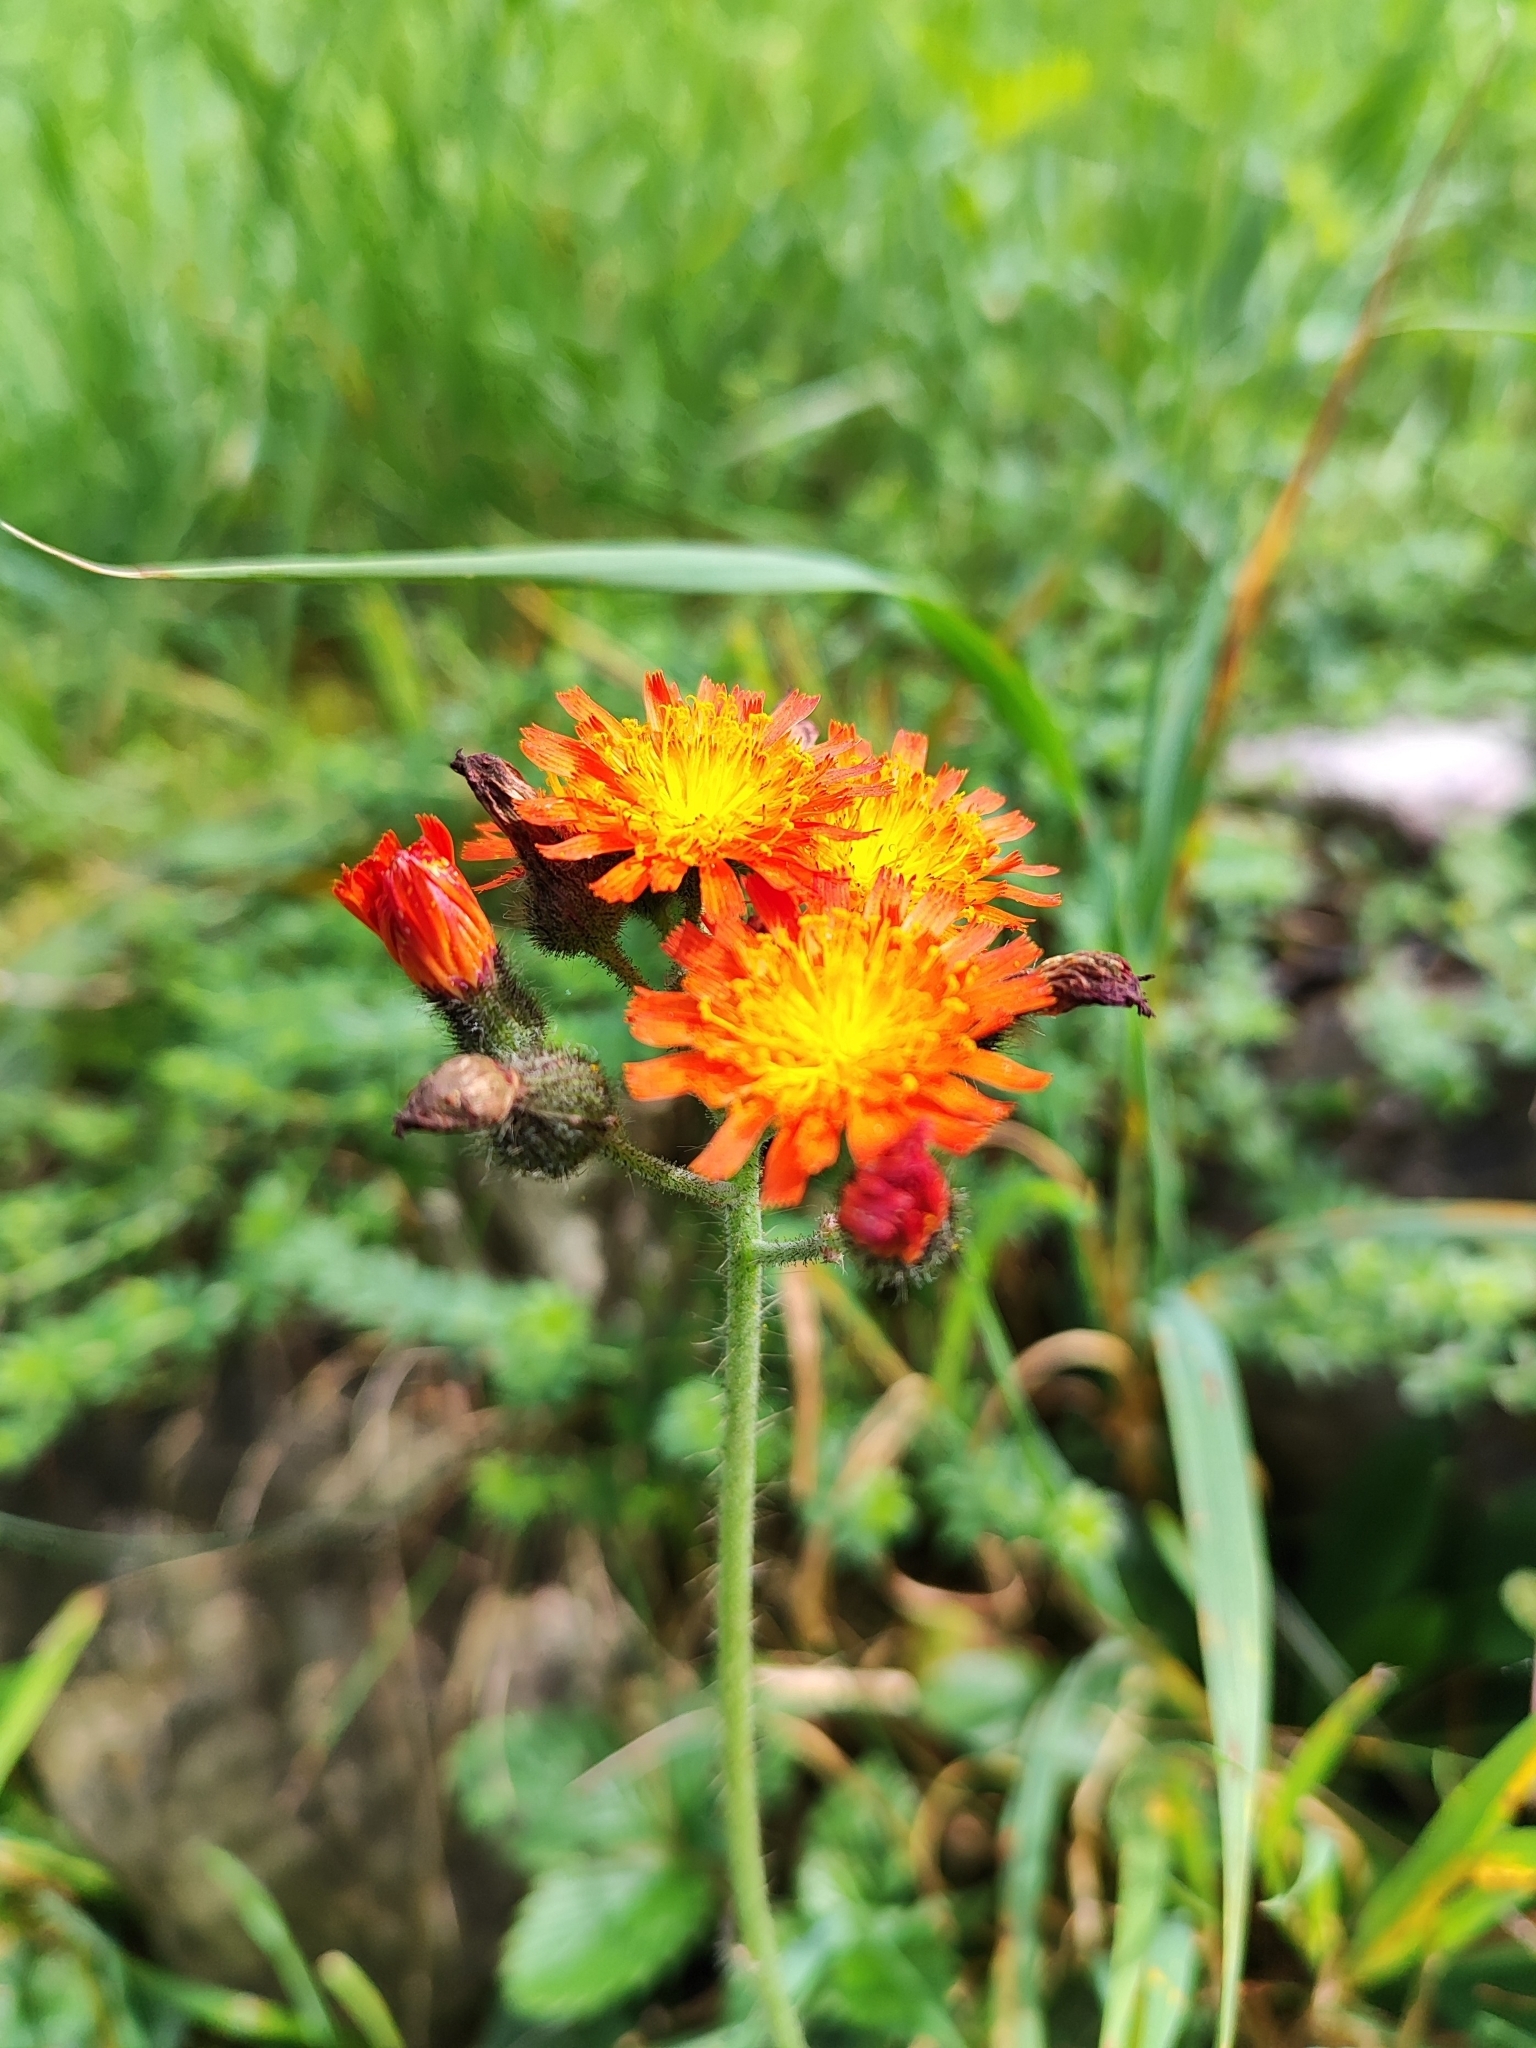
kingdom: Plantae
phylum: Tracheophyta
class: Magnoliopsida
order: Asterales
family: Asteraceae
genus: Pilosella
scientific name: Pilosella aurantiaca
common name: Fox-and-cubs
